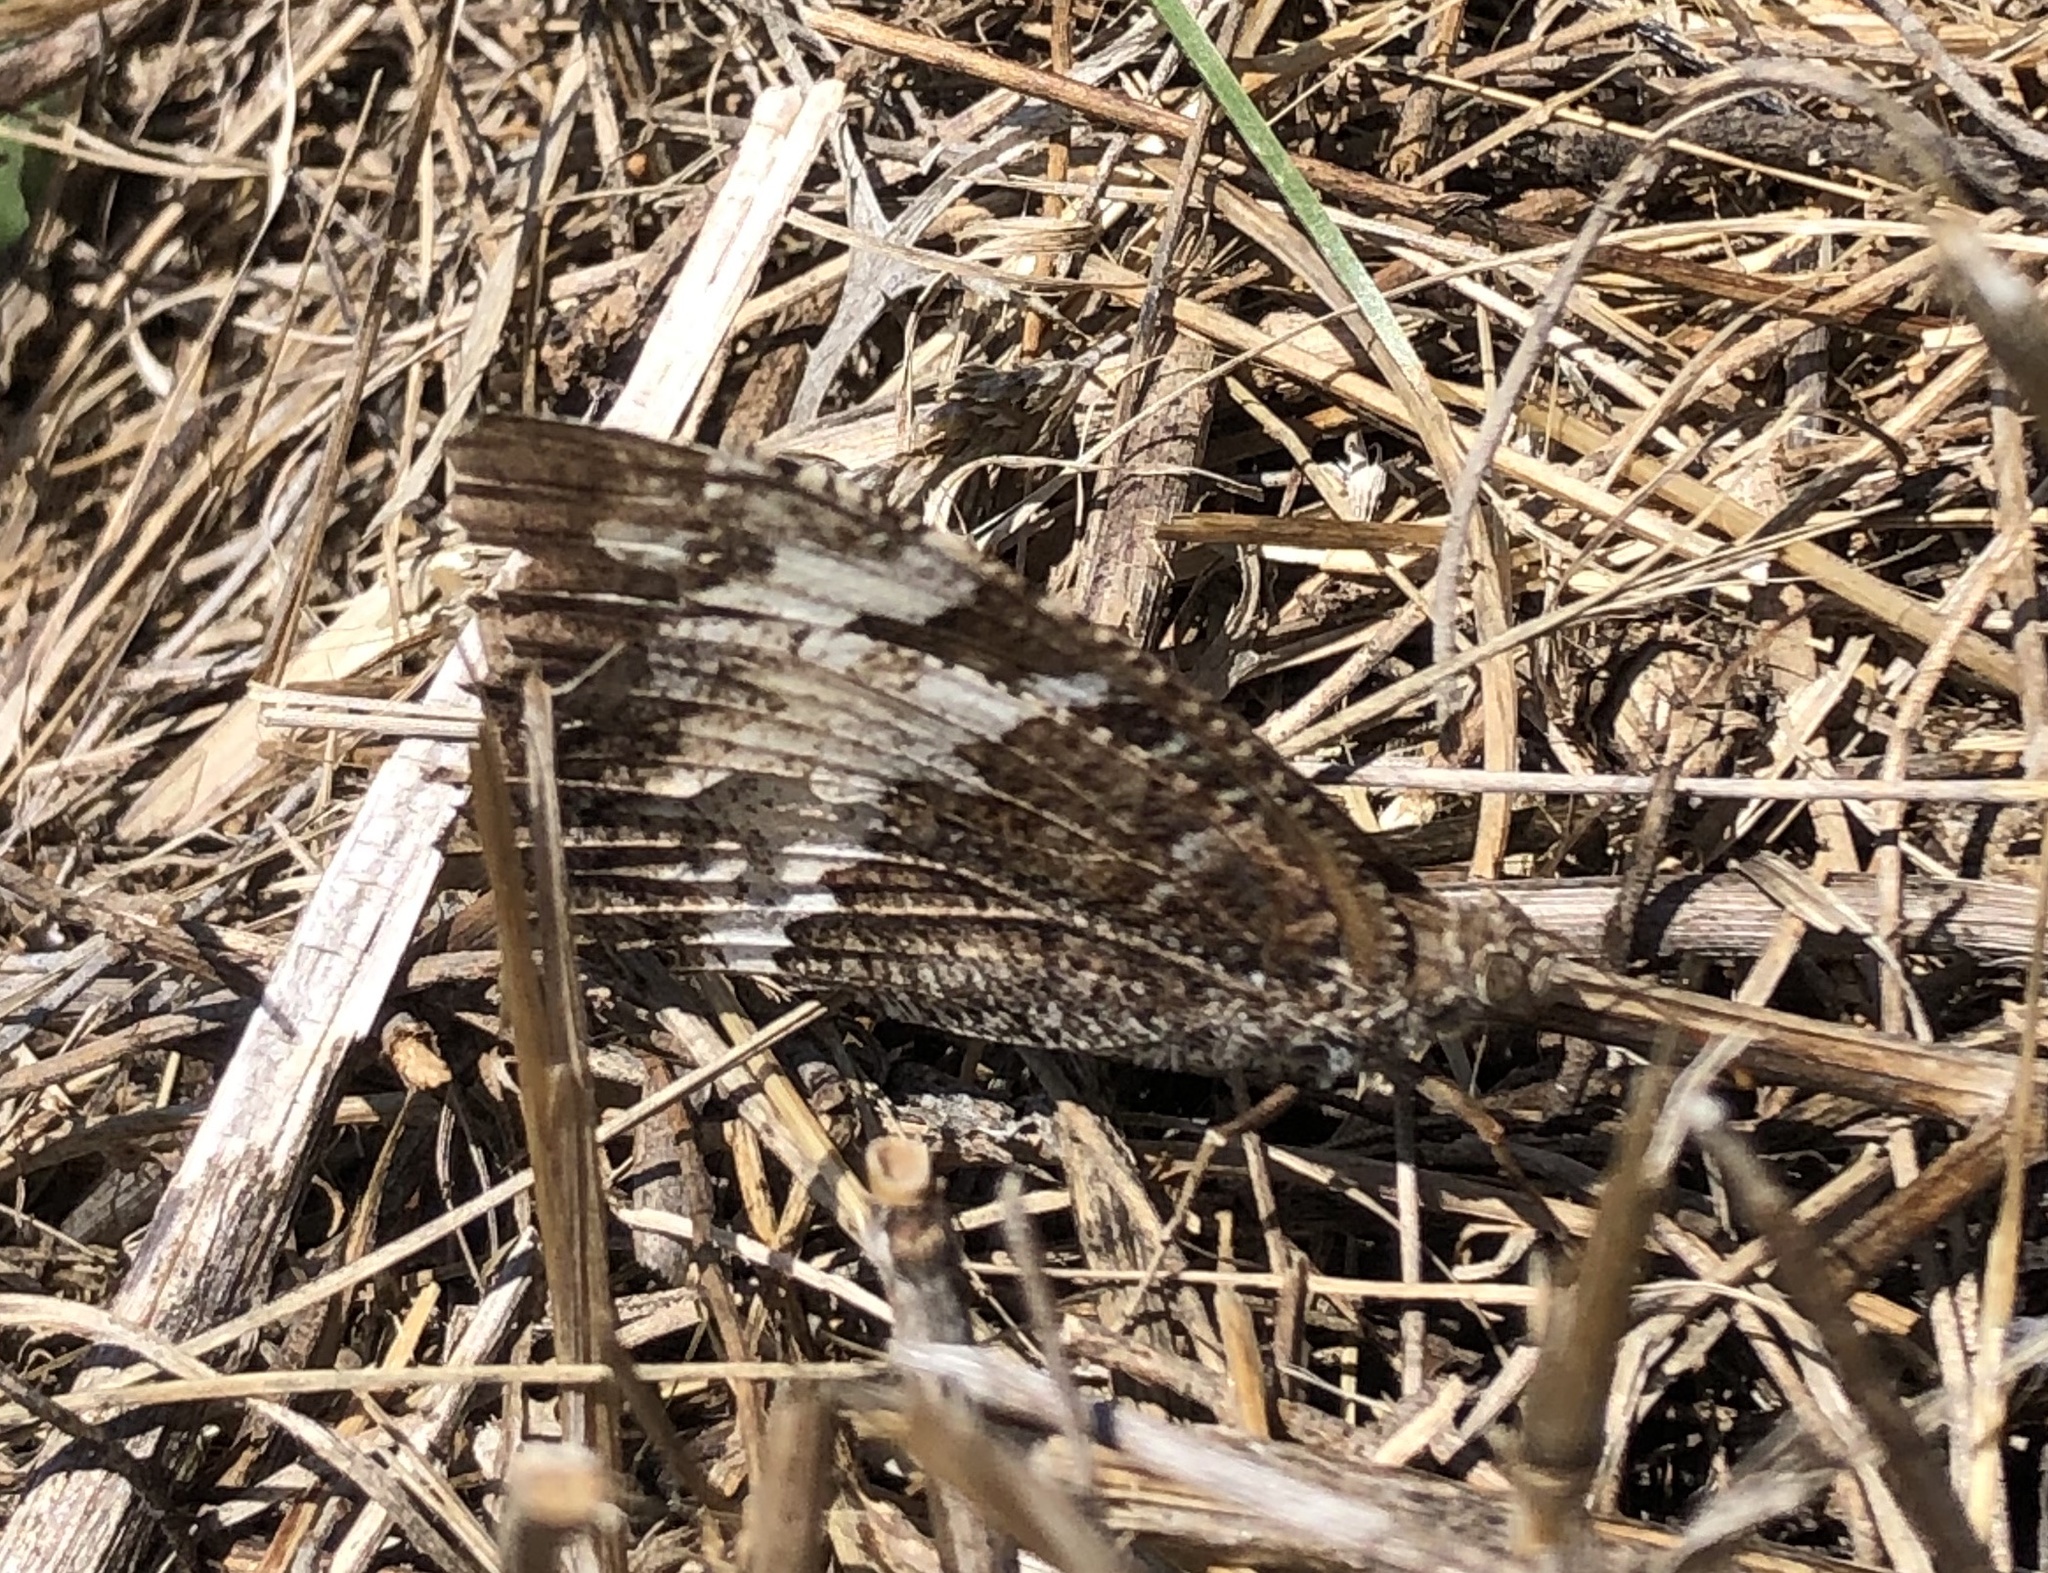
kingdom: Animalia
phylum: Arthropoda
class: Insecta
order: Lepidoptera
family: Lycaenidae
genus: Loweia
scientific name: Loweia tityrus
